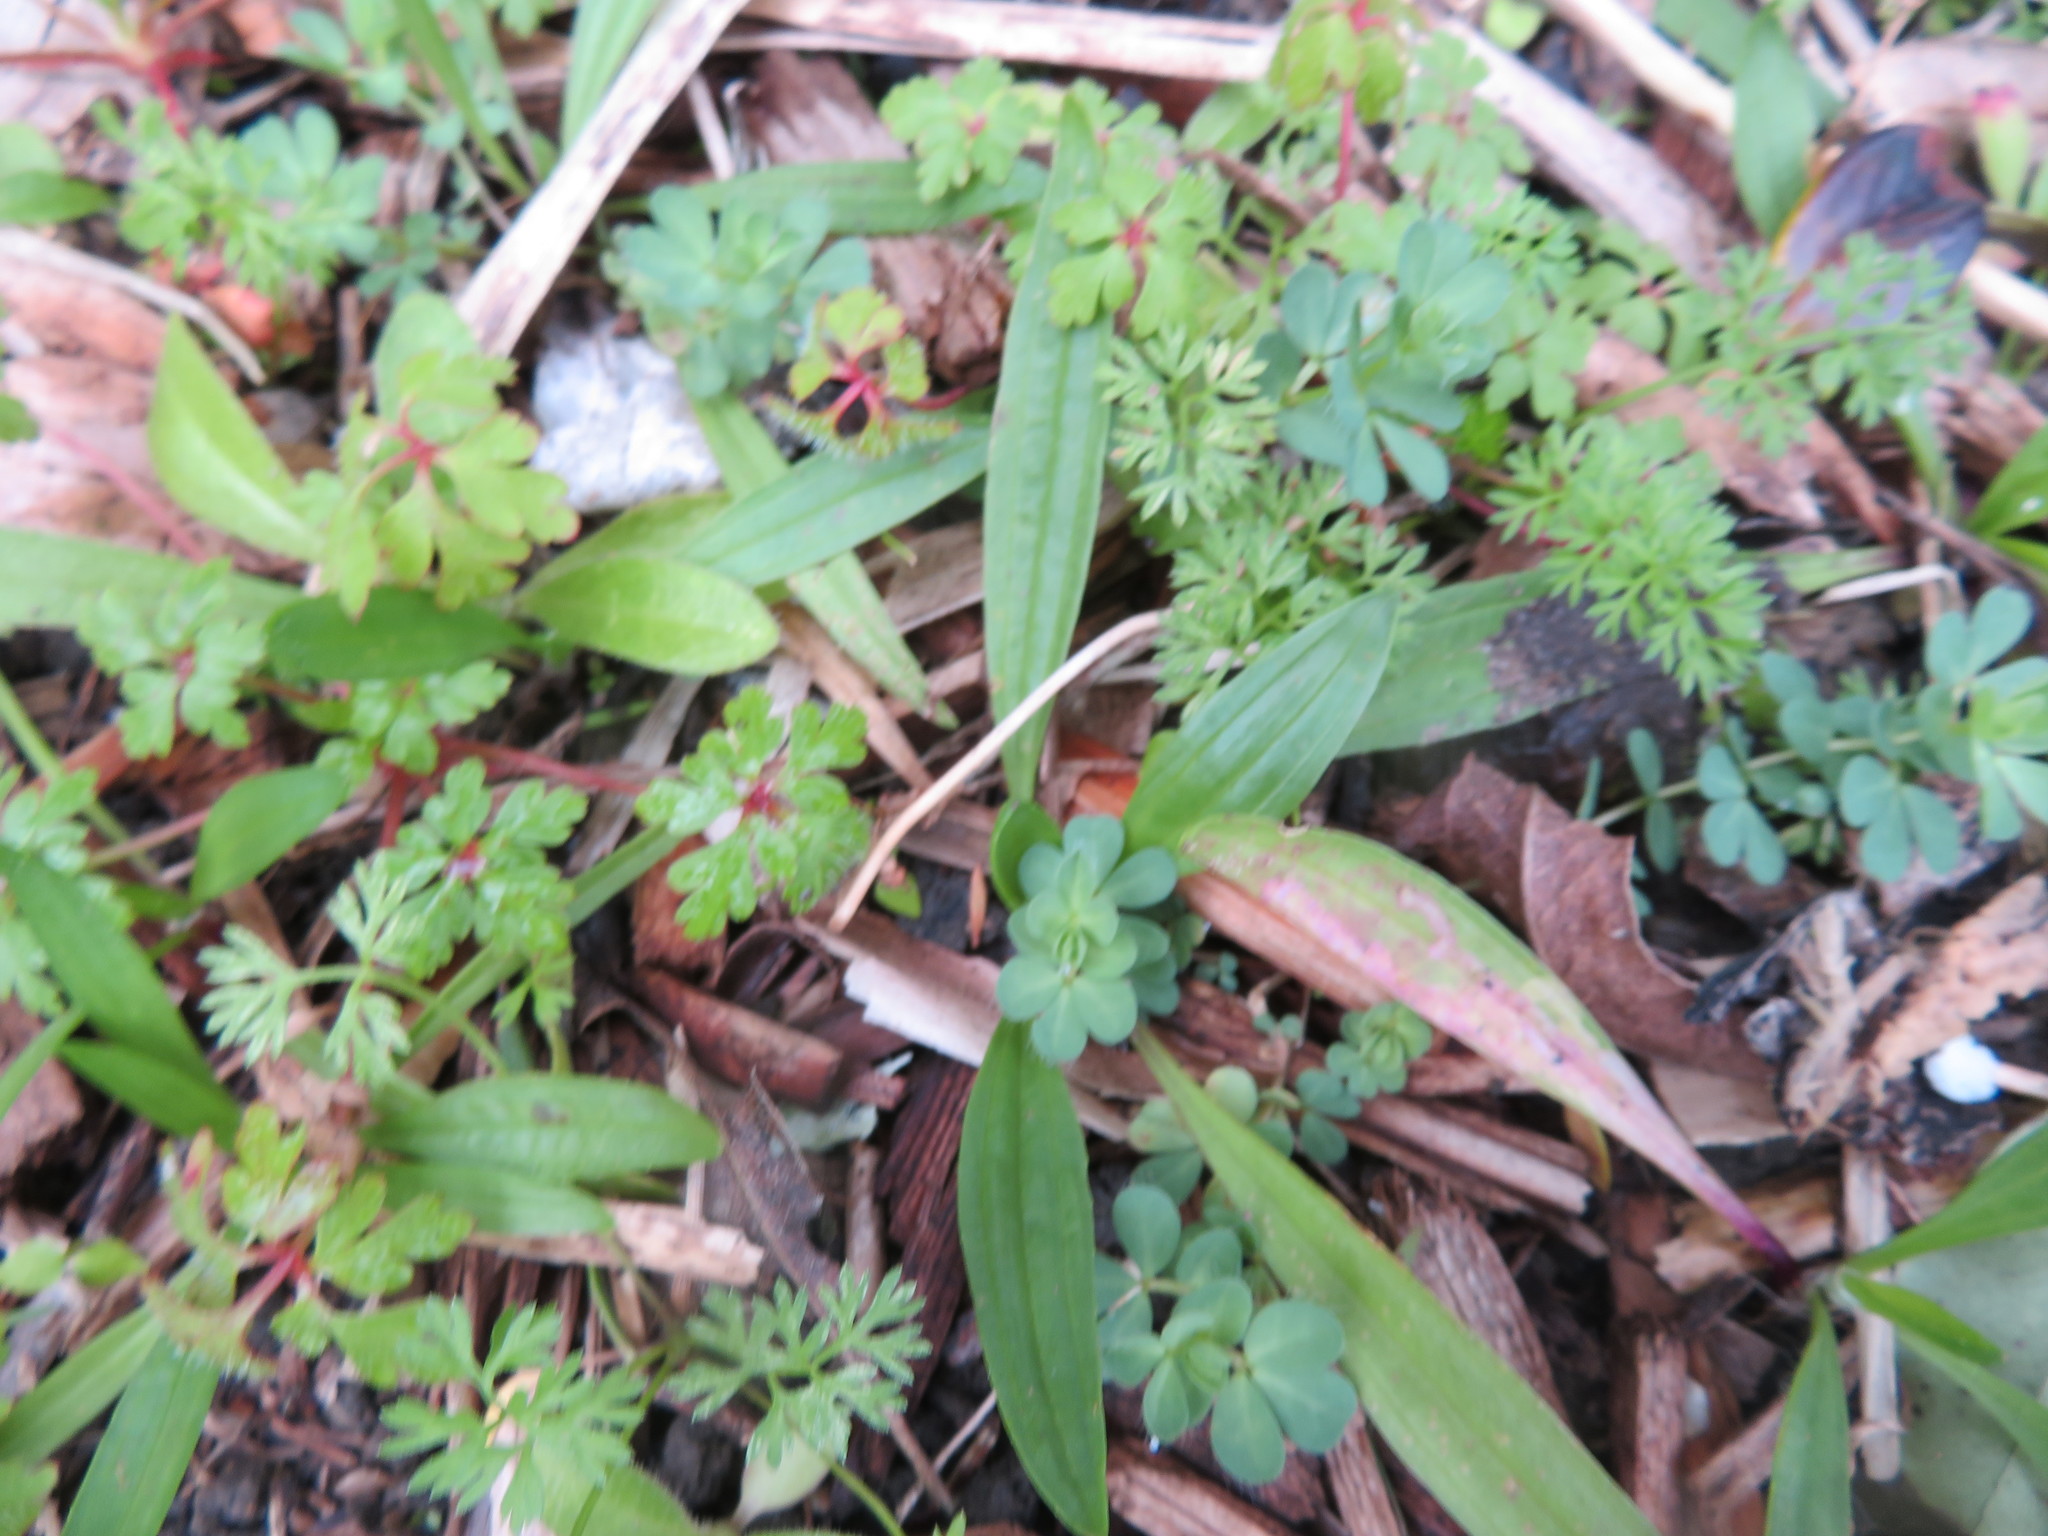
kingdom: Plantae
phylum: Tracheophyta
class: Magnoliopsida
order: Geraniales
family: Geraniaceae
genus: Geranium
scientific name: Geranium robertianum
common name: Herb-robert
